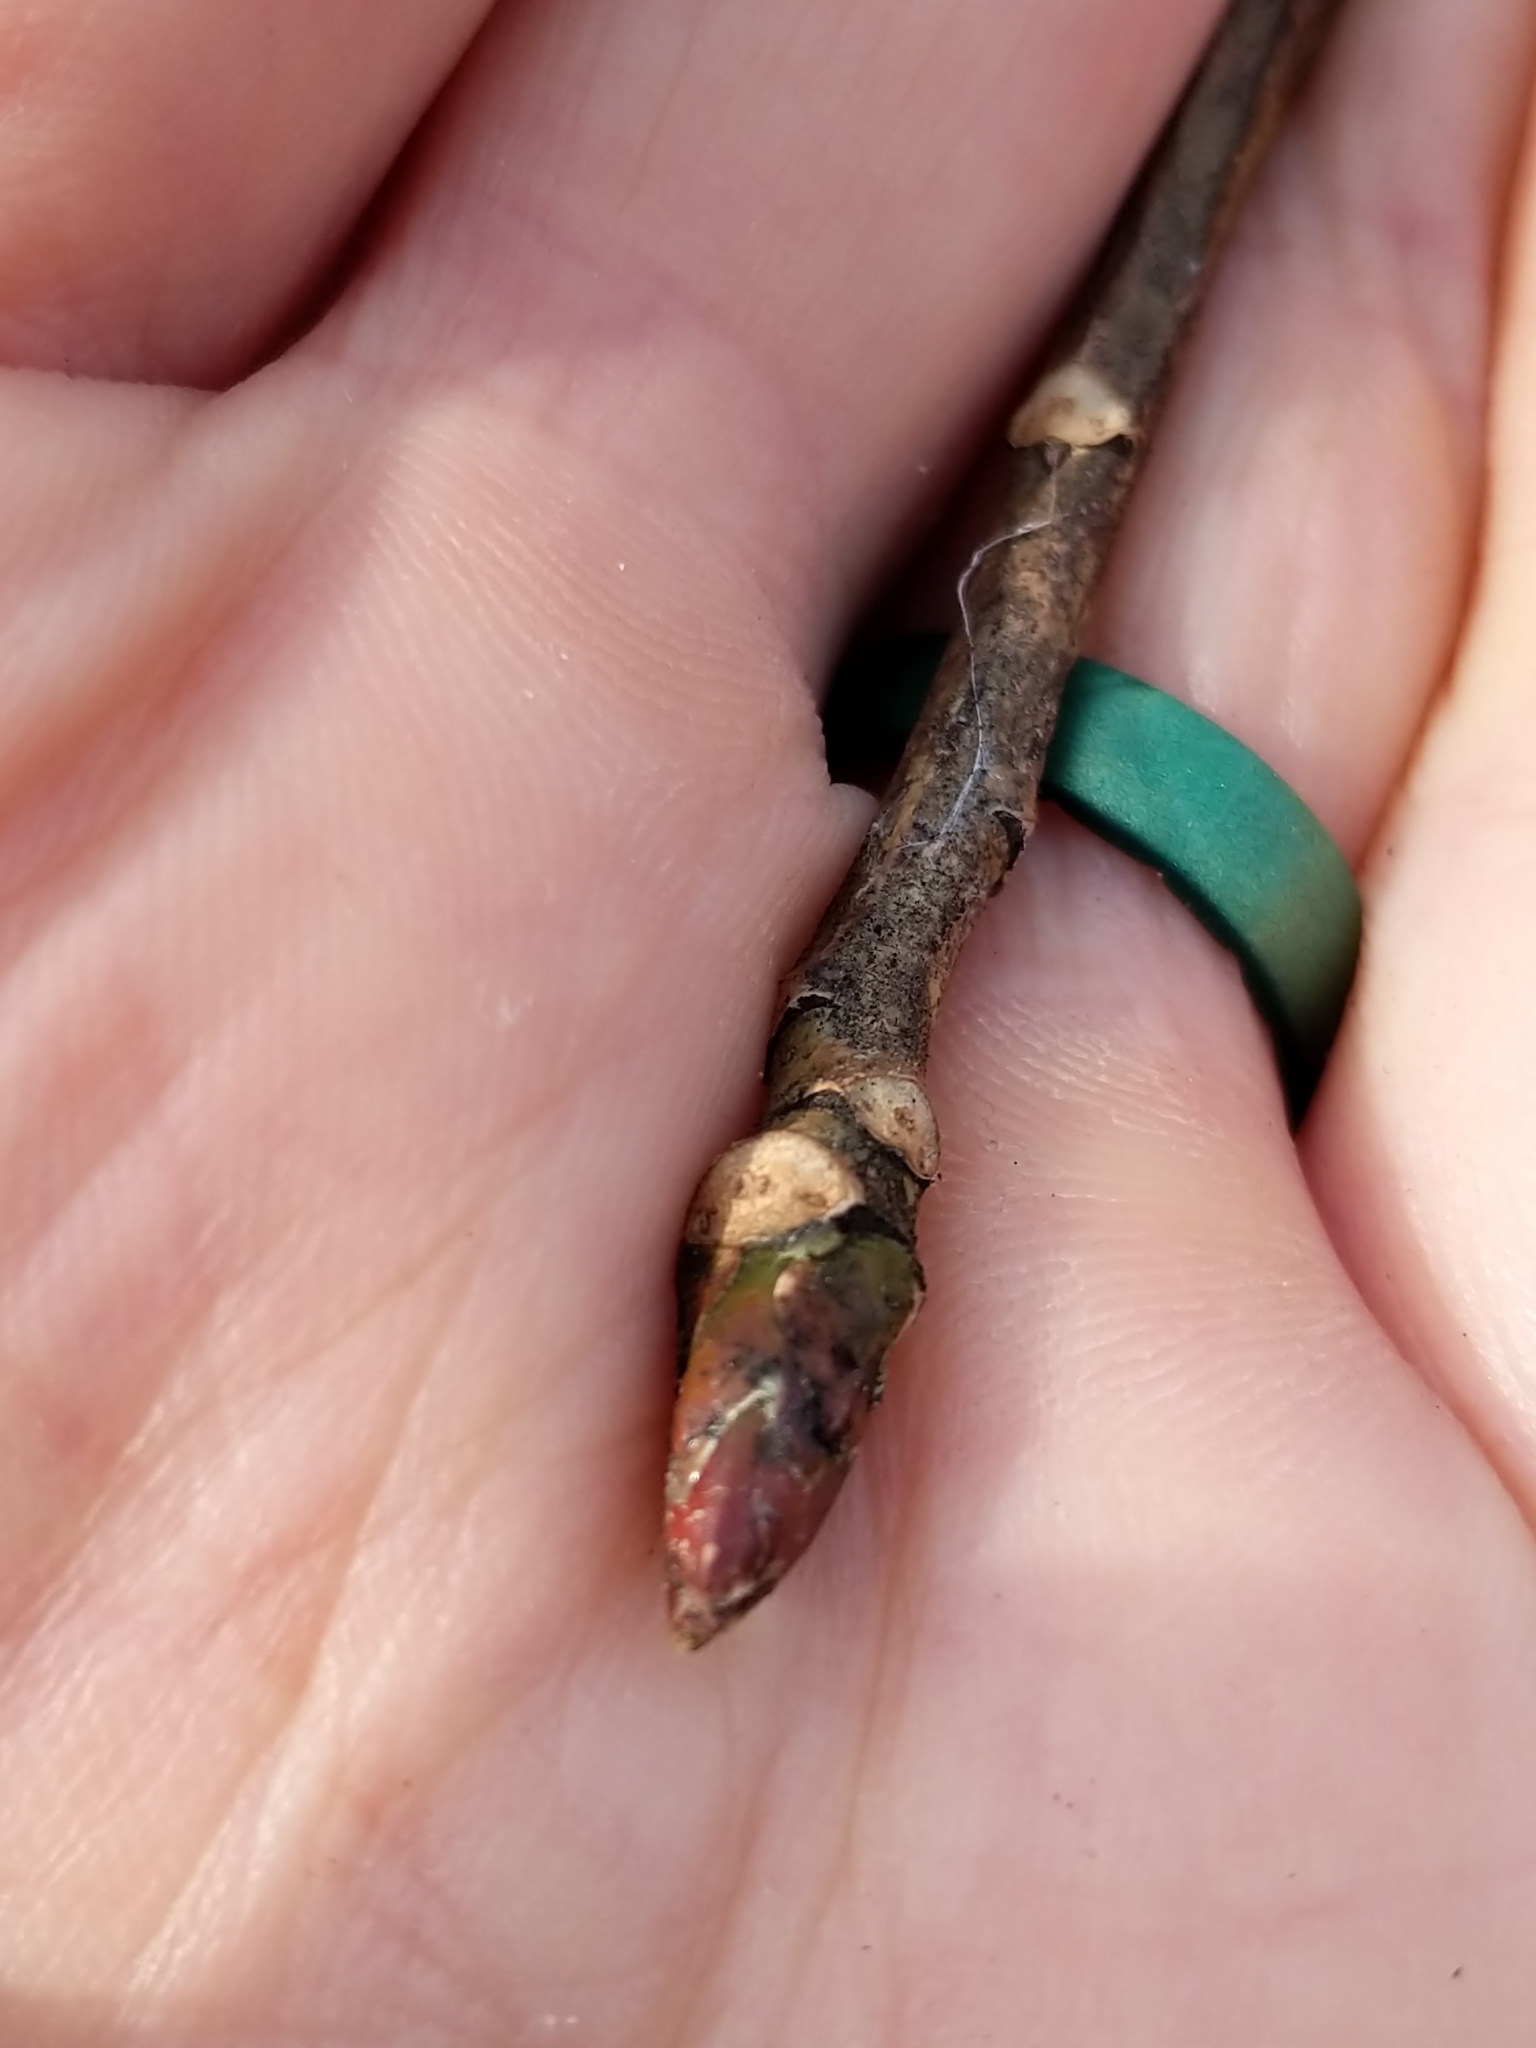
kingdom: Plantae
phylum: Tracheophyta
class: Magnoliopsida
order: Malpighiales
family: Salicaceae
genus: Populus
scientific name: Populus deltoides
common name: Eastern cottonwood
